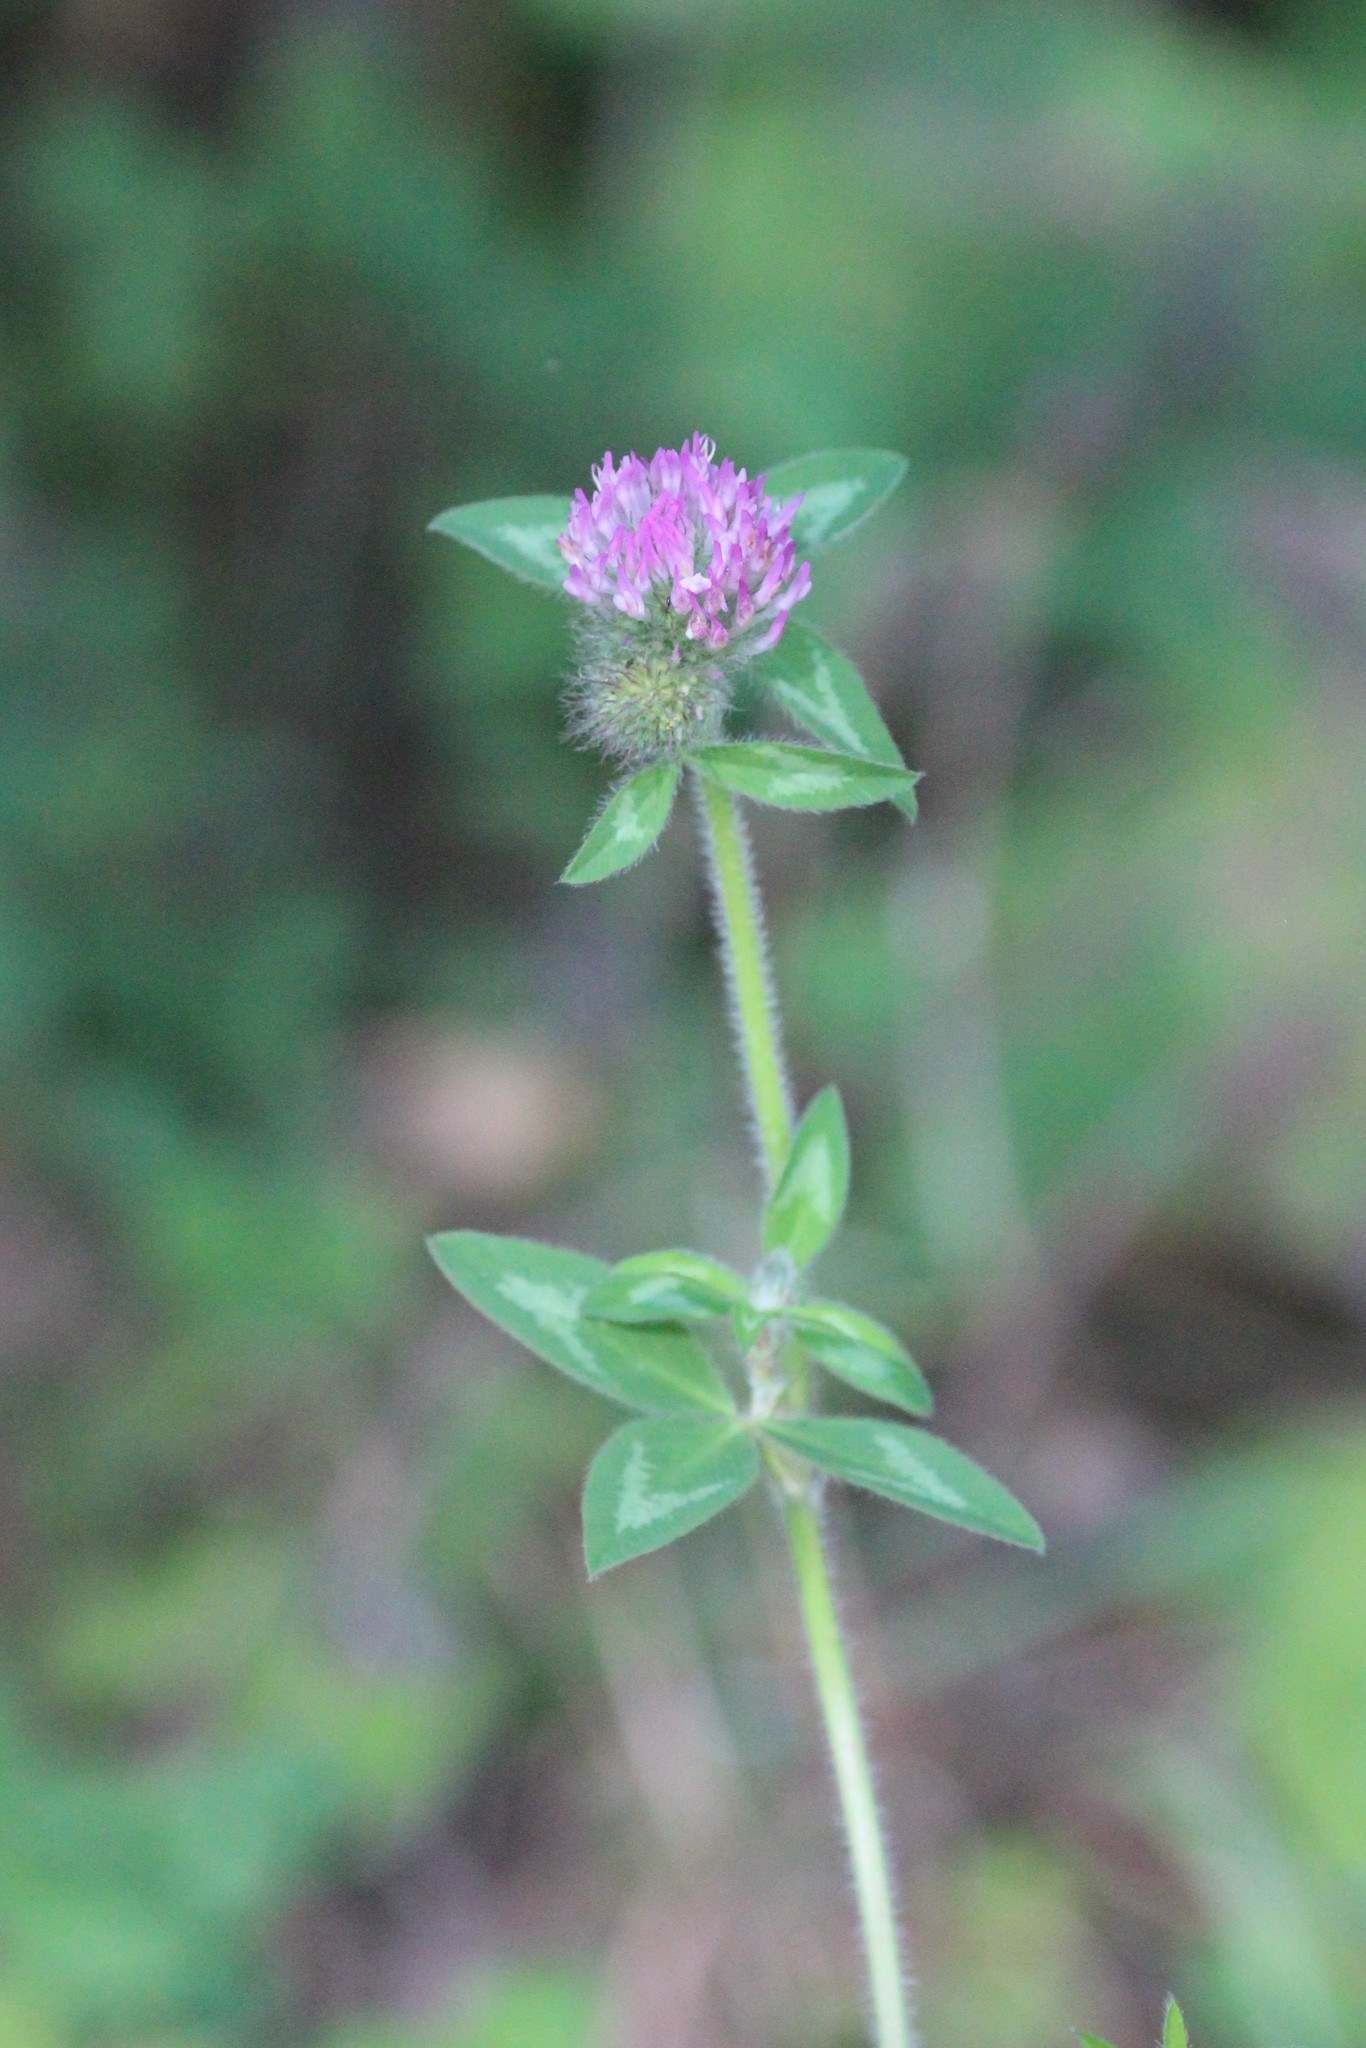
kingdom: Plantae
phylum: Tracheophyta
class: Magnoliopsida
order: Fabales
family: Fabaceae
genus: Trifolium
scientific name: Trifolium pratense
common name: Red clover
